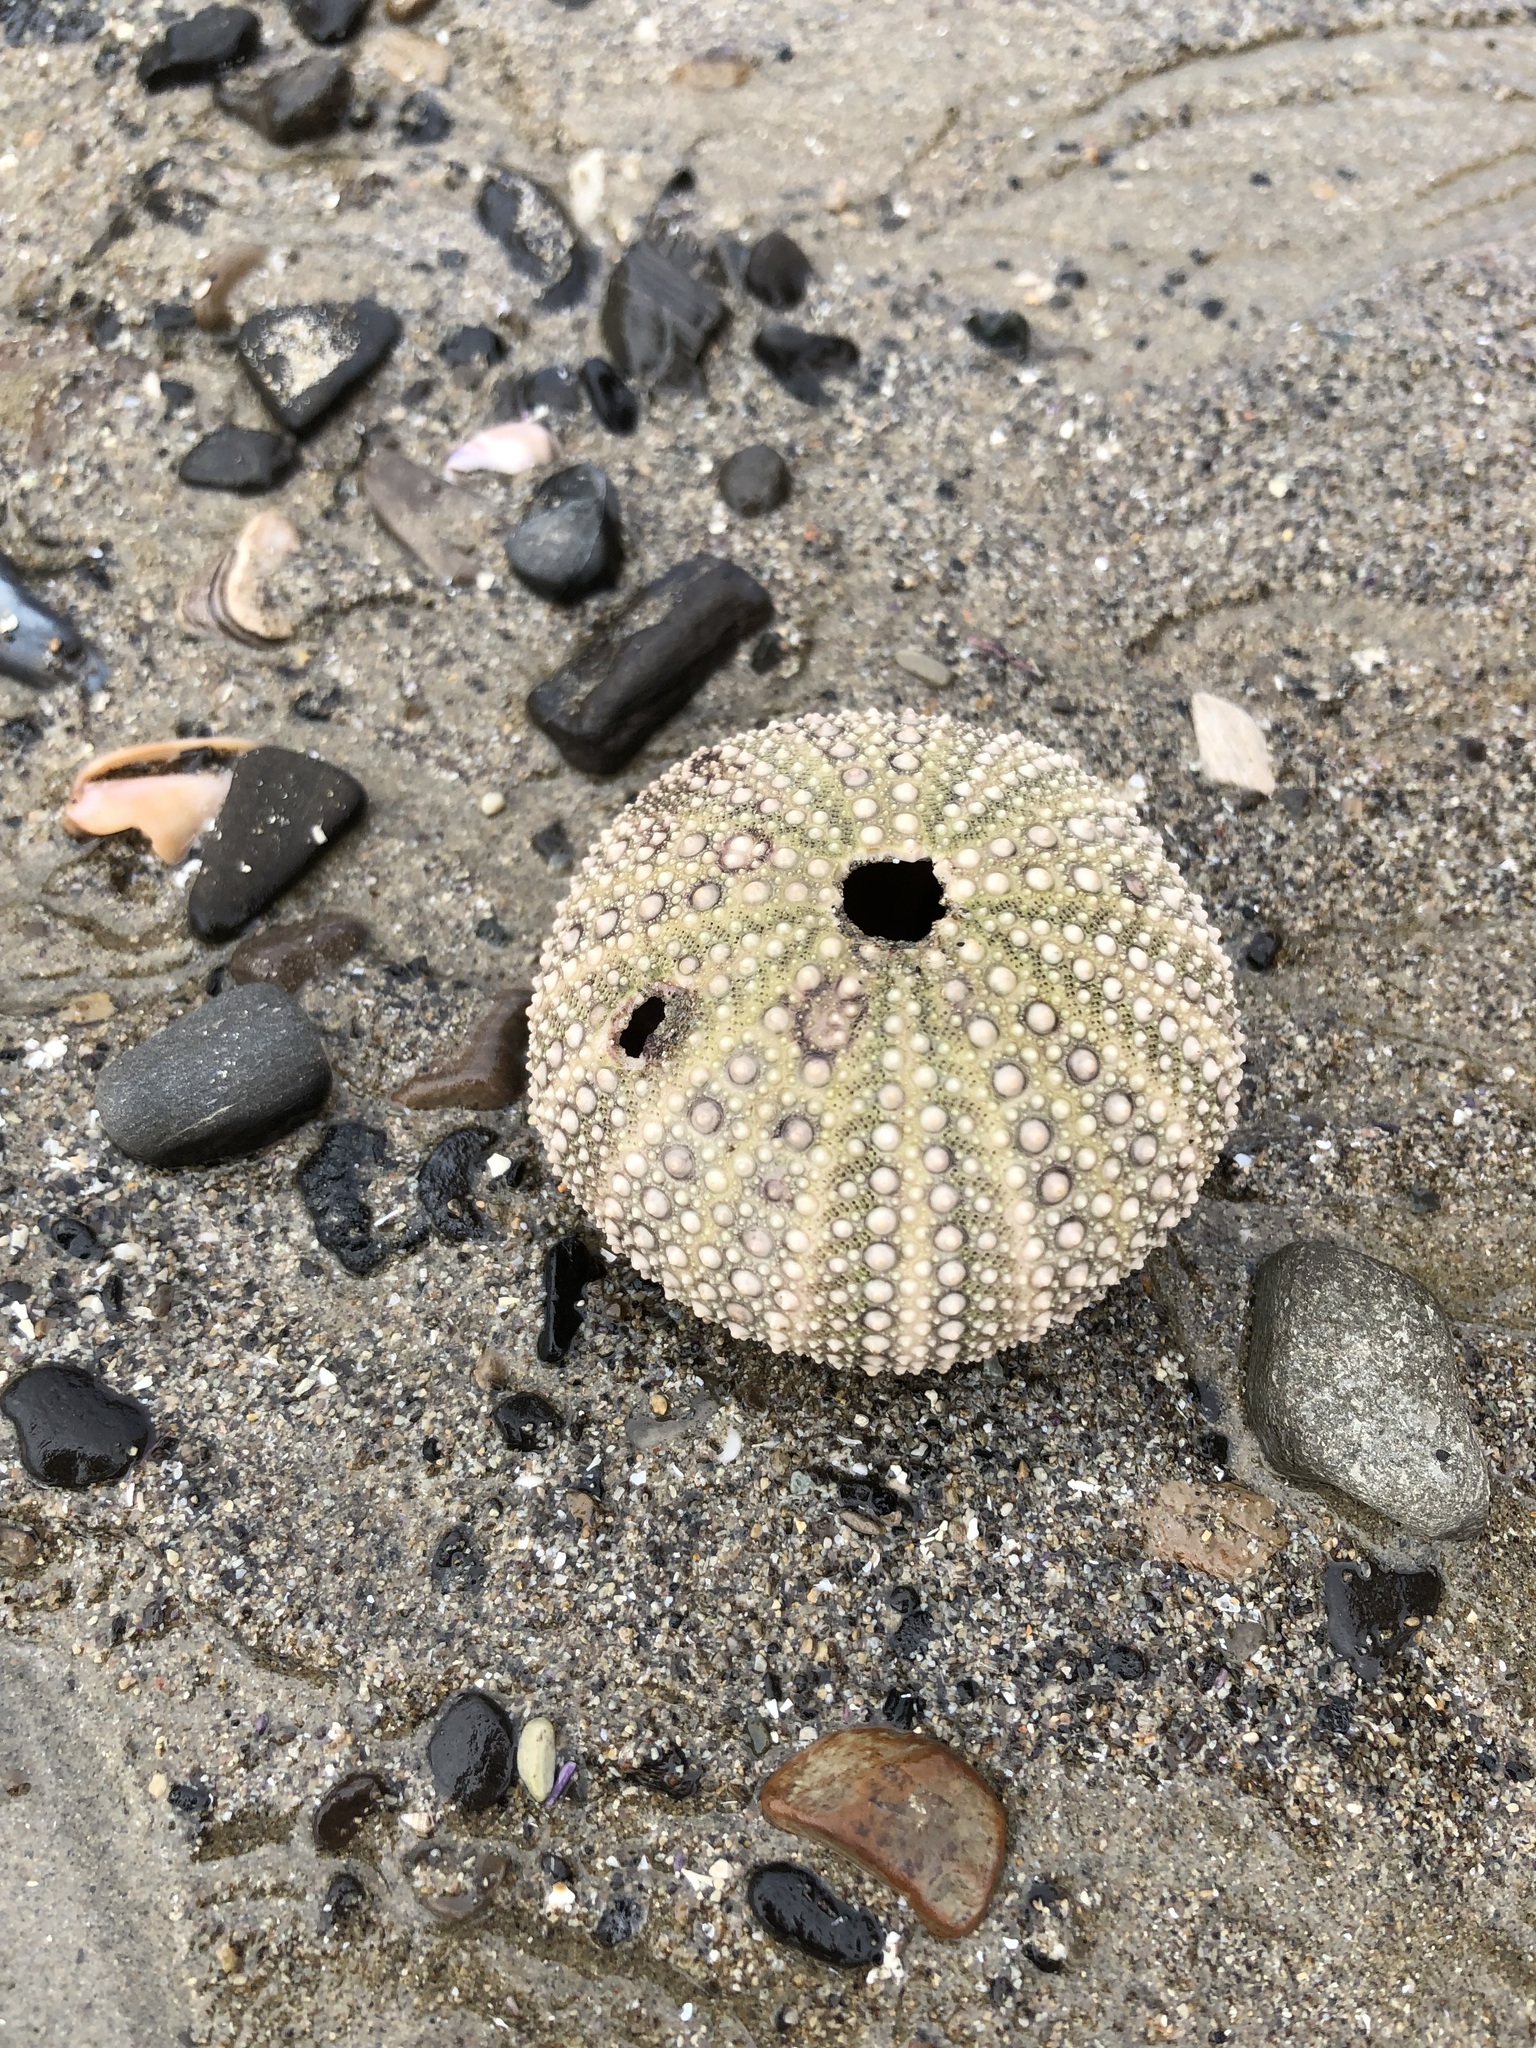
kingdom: Animalia
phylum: Echinodermata
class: Echinoidea
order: Camarodonta
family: Strongylocentrotidae
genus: Strongylocentrotus
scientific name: Strongylocentrotus purpuratus
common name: Purple sea urchin
